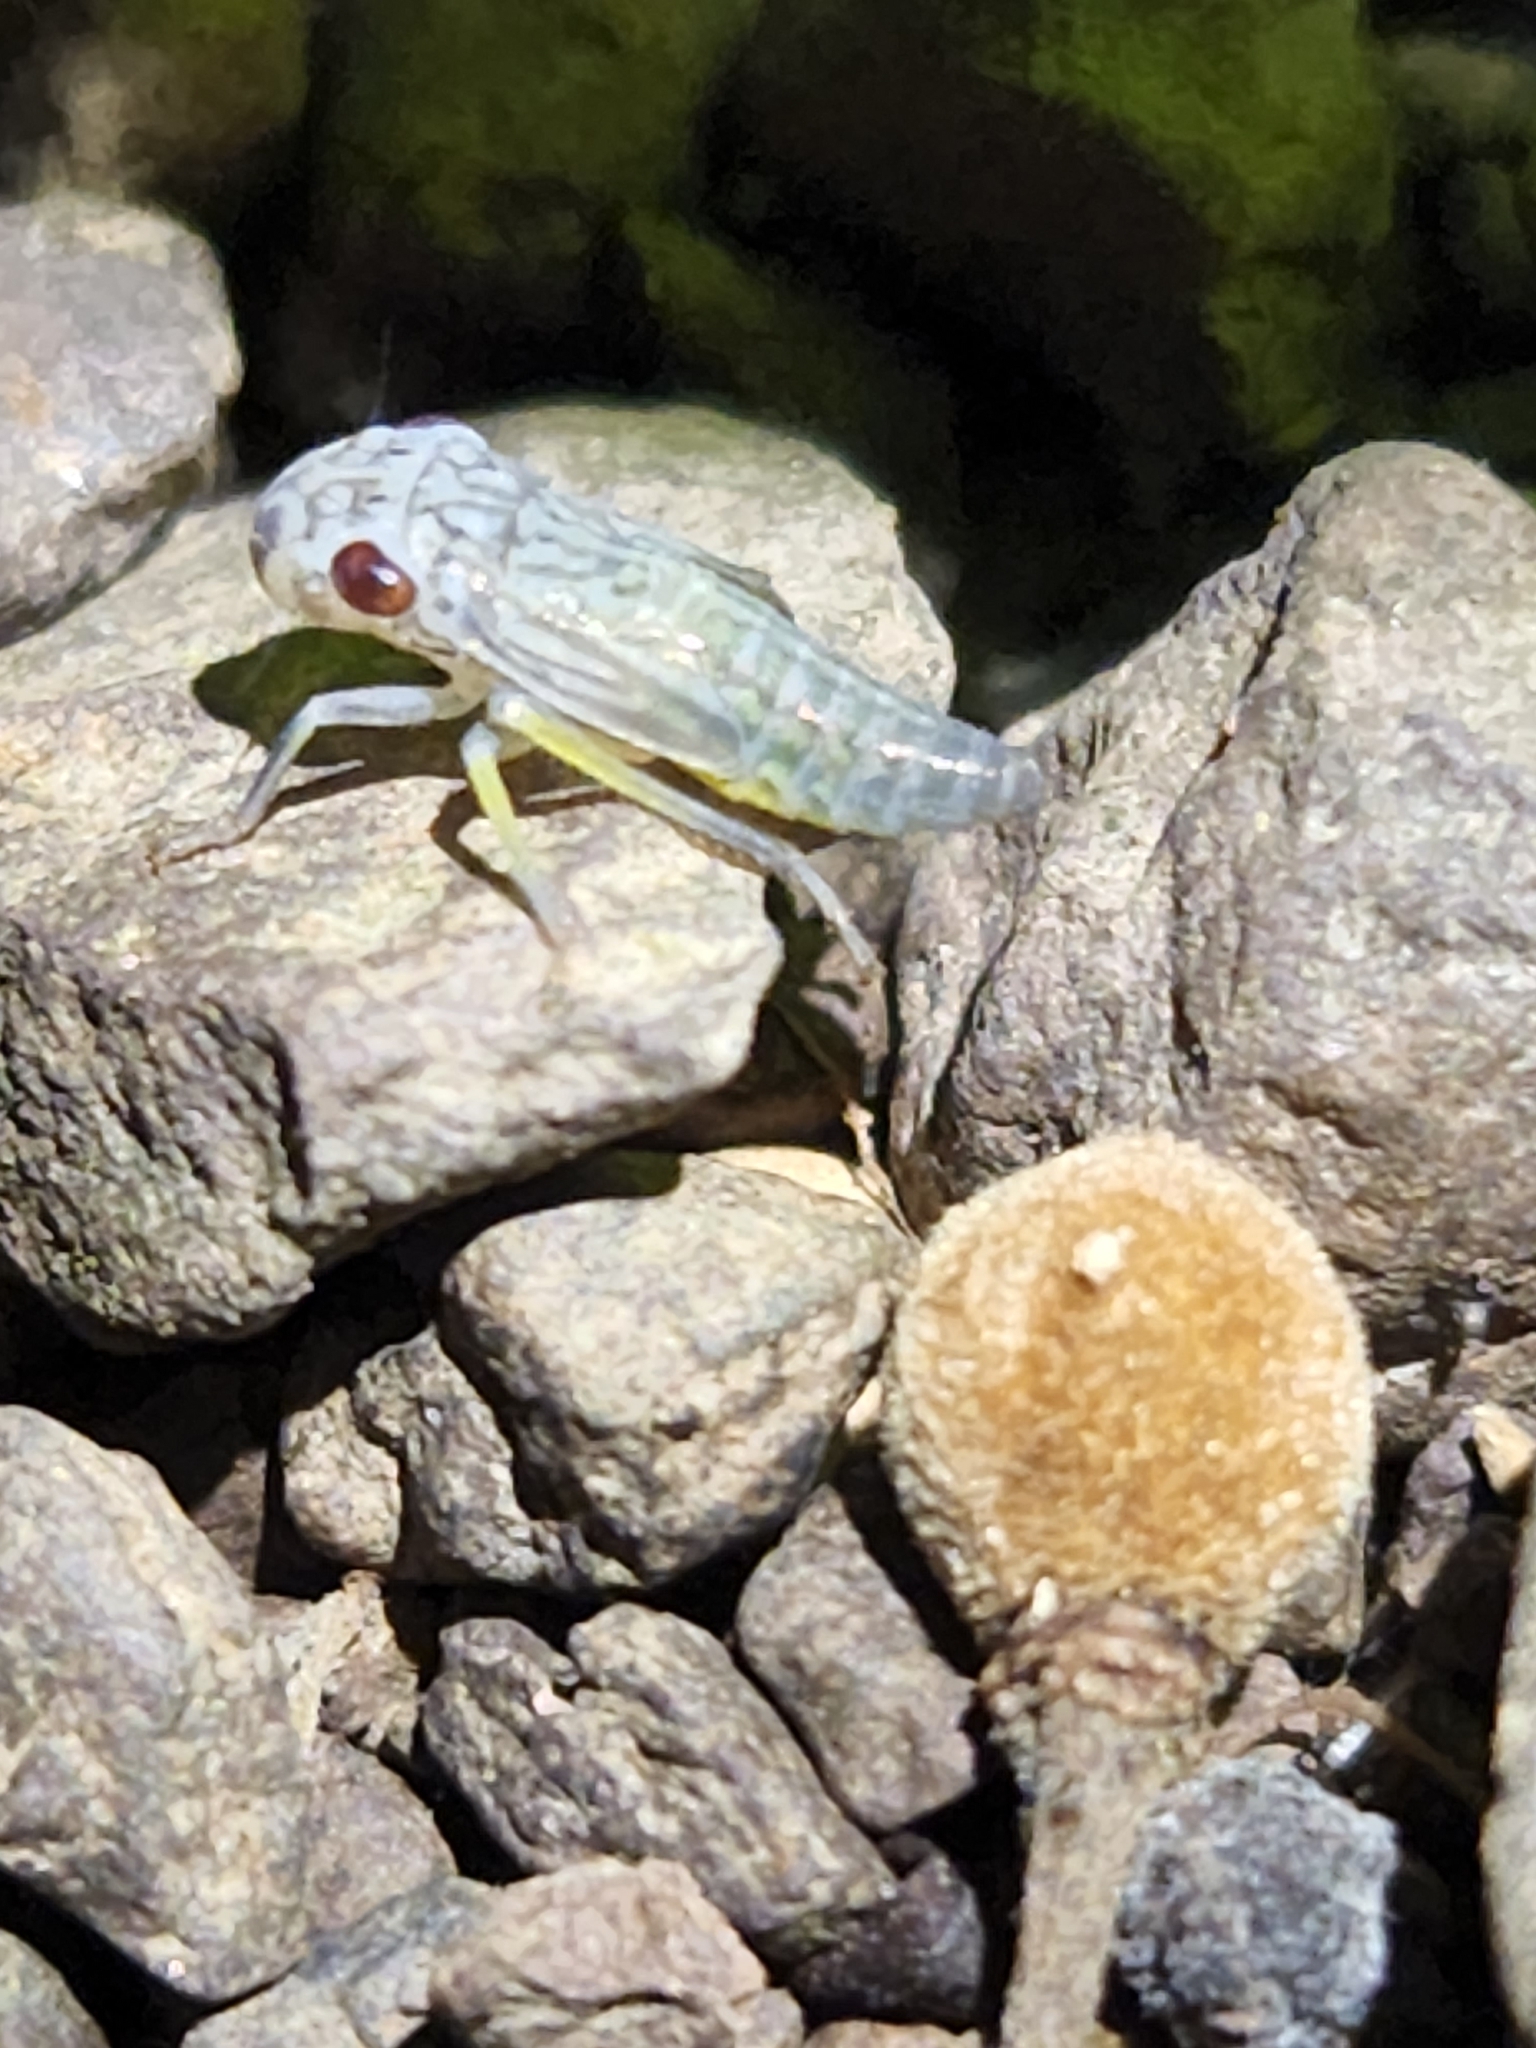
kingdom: Animalia
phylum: Arthropoda
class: Insecta
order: Hemiptera
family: Cicadellidae
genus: Oncometopia
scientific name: Oncometopia orbona
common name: Broad-headed sharpshooter
